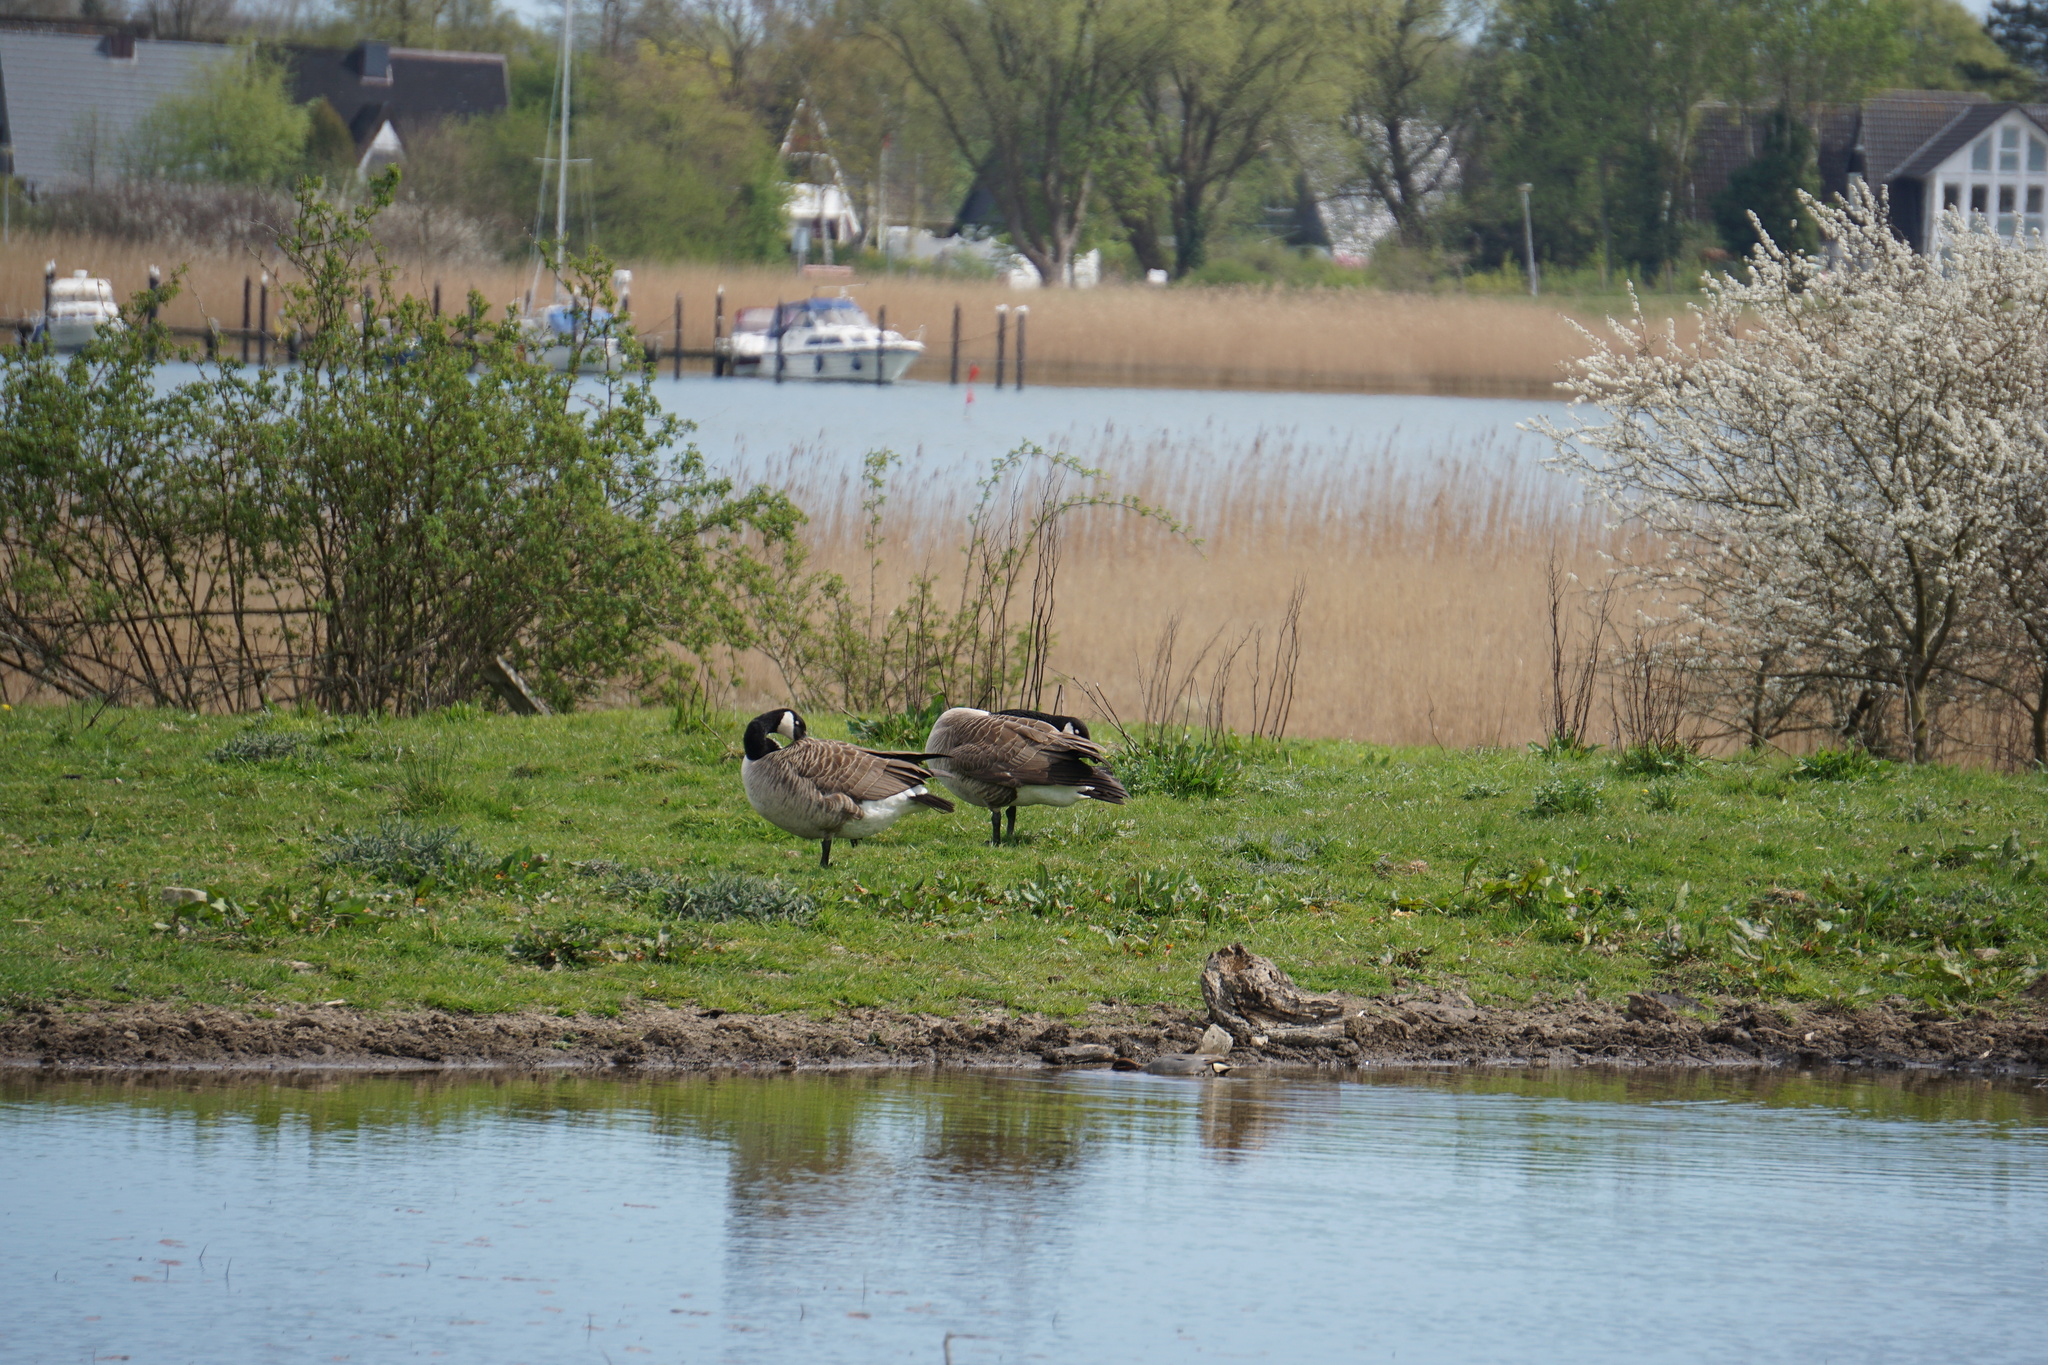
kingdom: Animalia
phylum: Chordata
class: Aves
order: Anseriformes
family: Anatidae
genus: Branta
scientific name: Branta canadensis
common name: Canada goose
